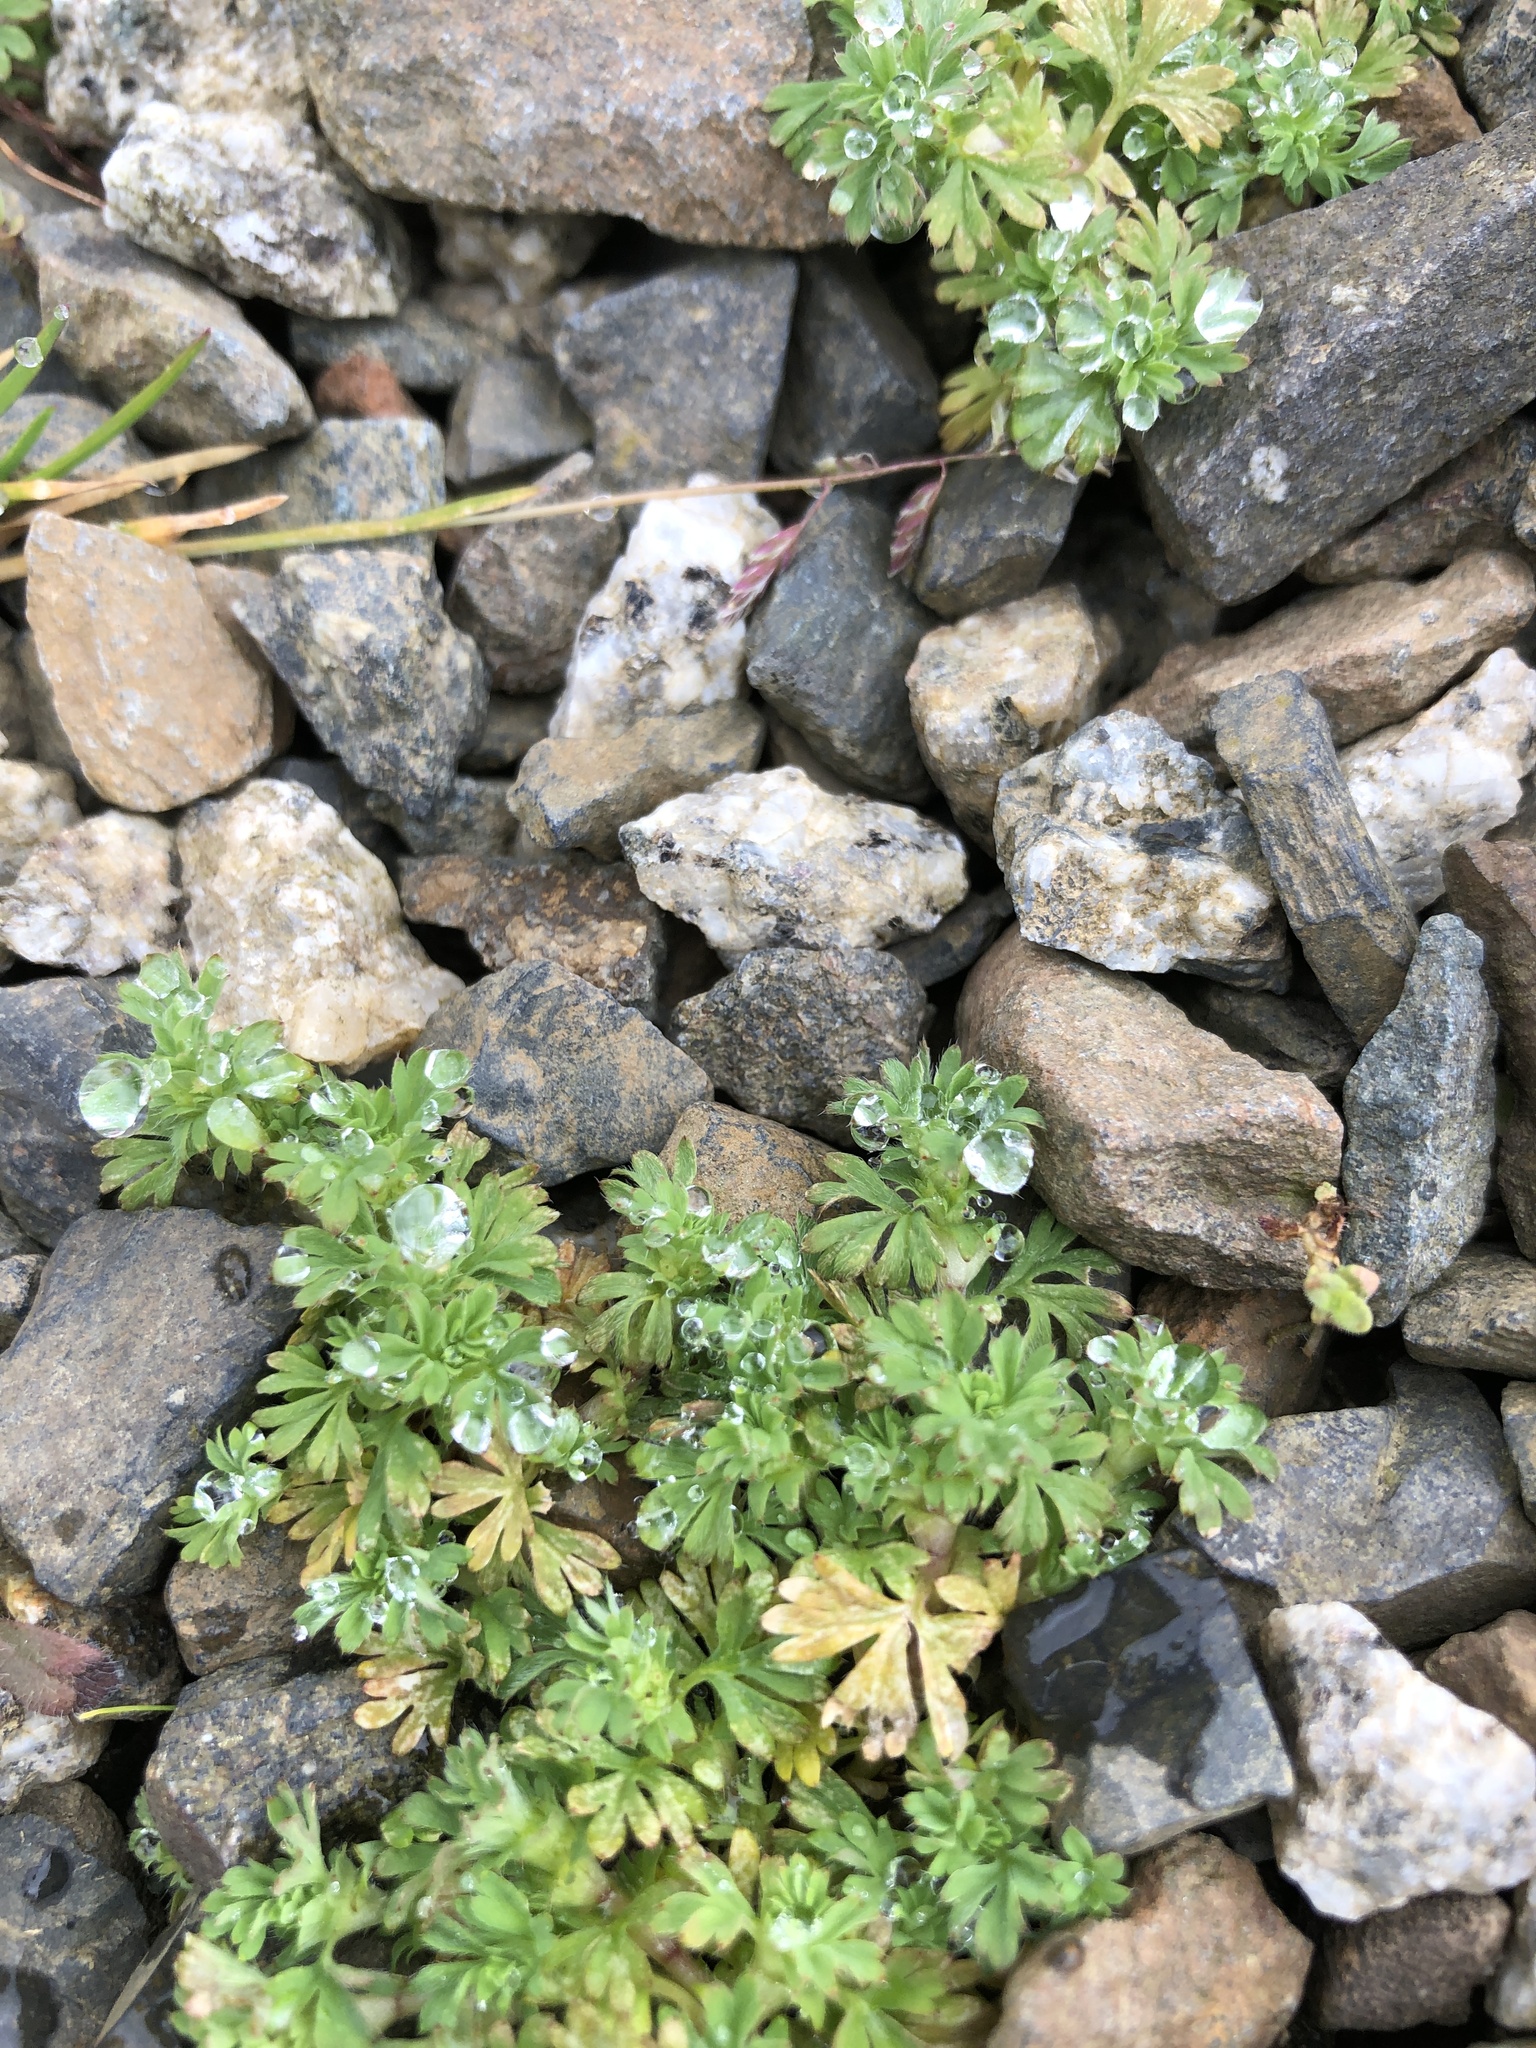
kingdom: Plantae
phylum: Tracheophyta
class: Magnoliopsida
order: Rosales
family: Rosaceae
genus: Aphanes
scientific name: Aphanes australis
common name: Slender parsley-piert
